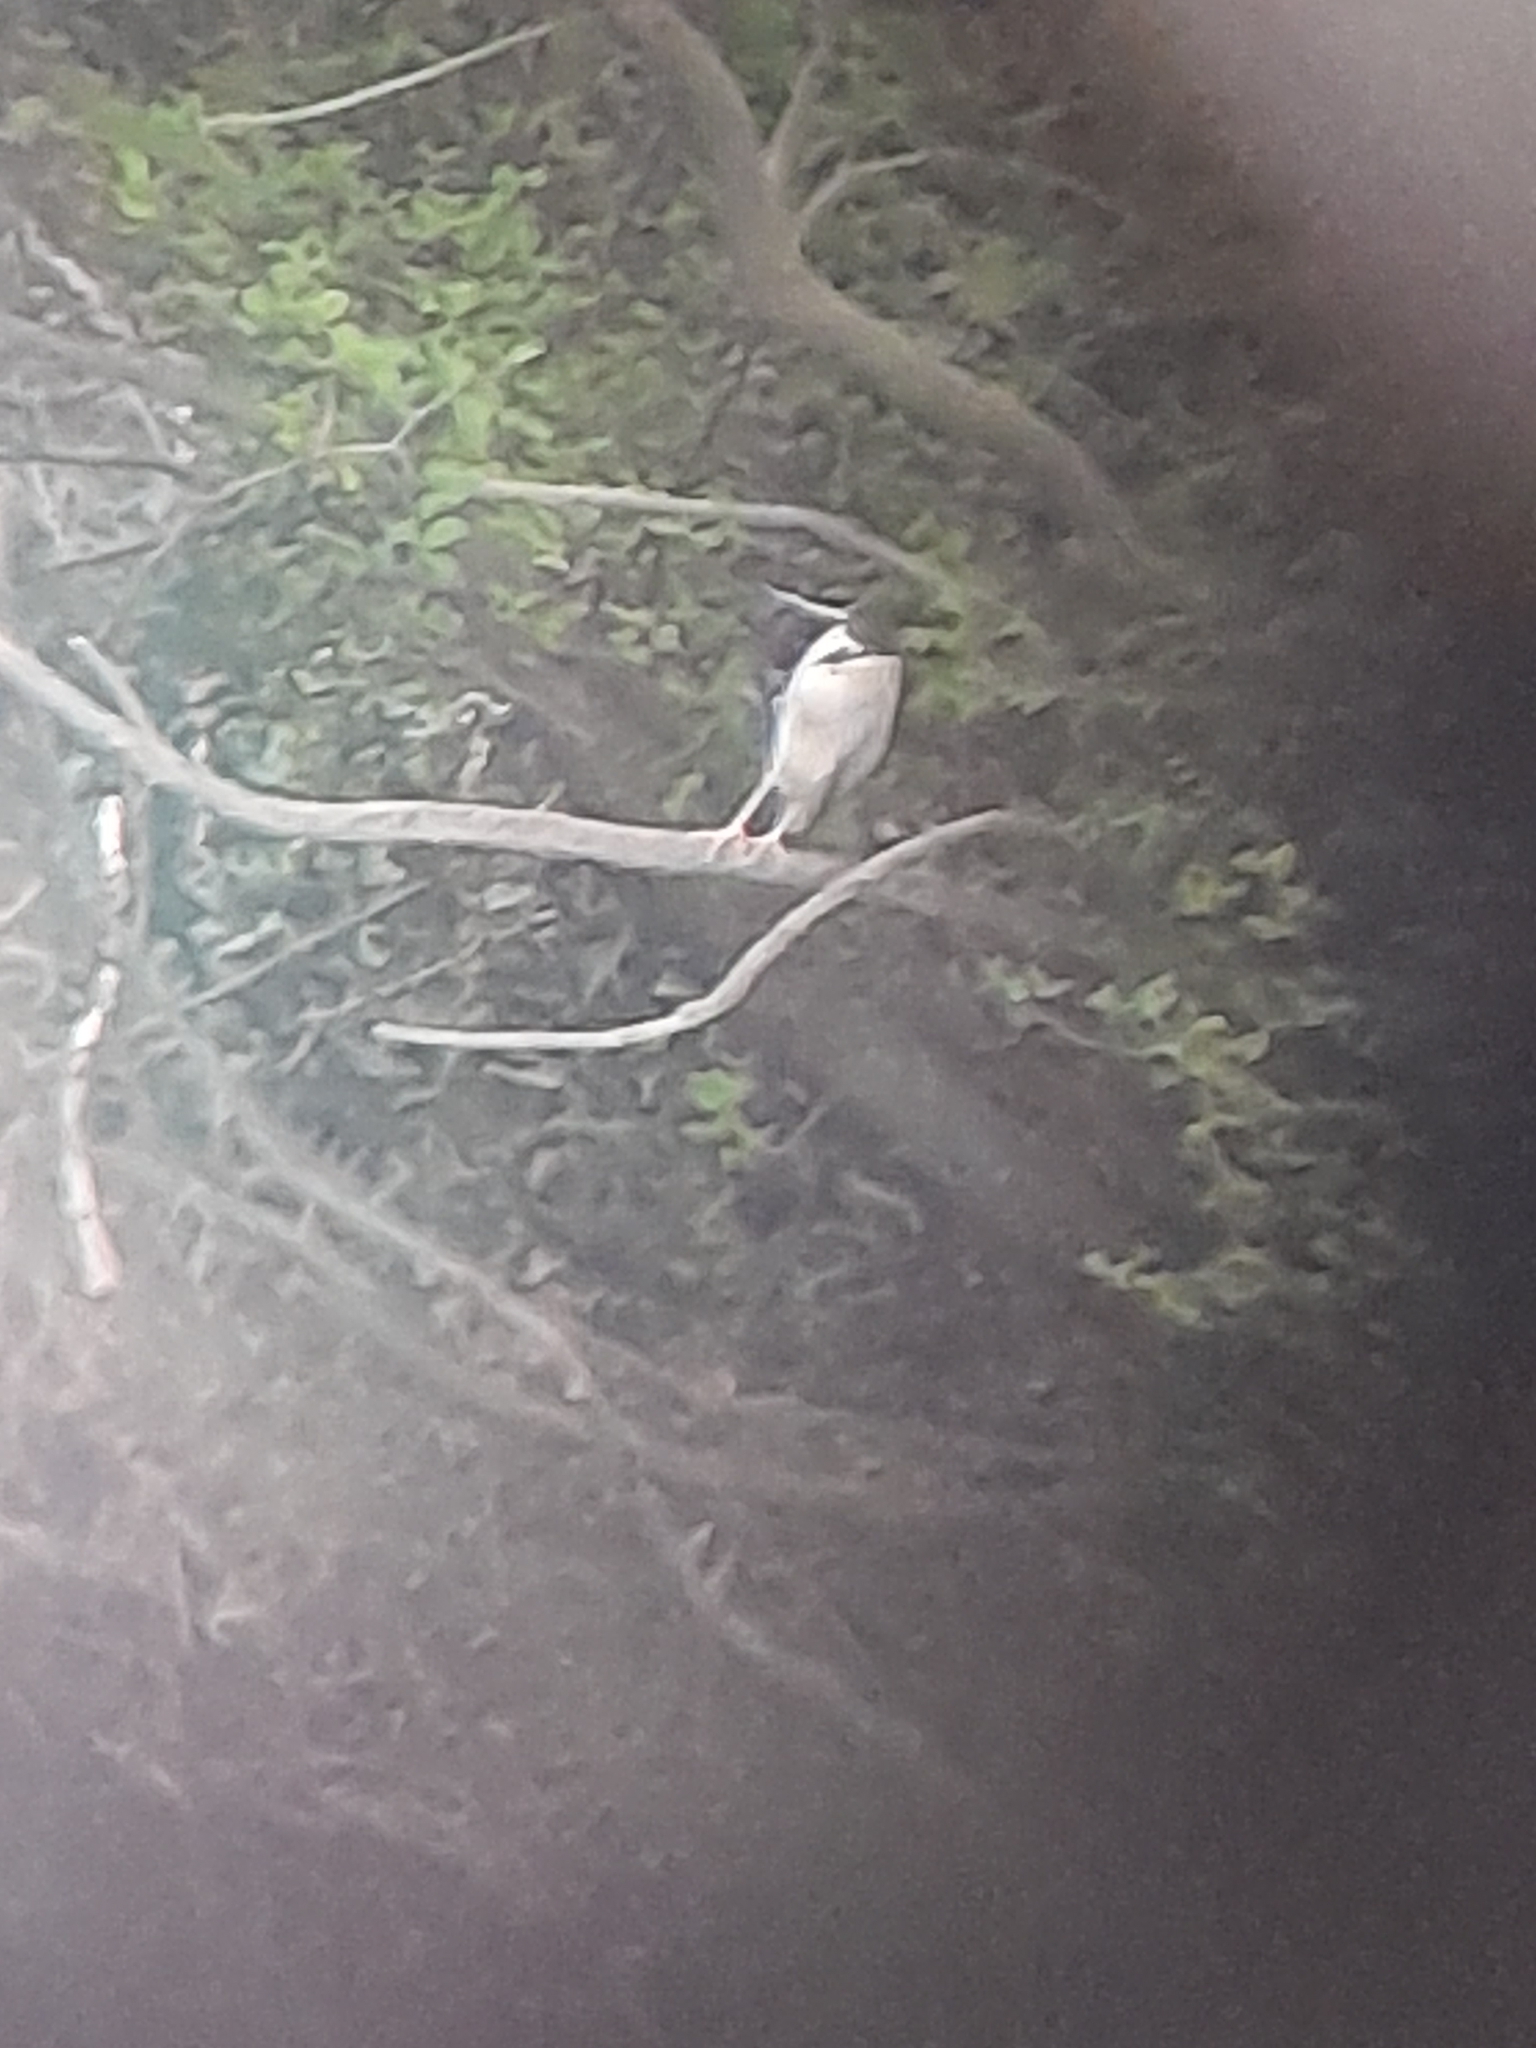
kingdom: Animalia
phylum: Chordata
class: Aves
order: Pelecaniformes
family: Ardeidae
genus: Nycticorax
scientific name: Nycticorax nycticorax
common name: Black-crowned night heron
